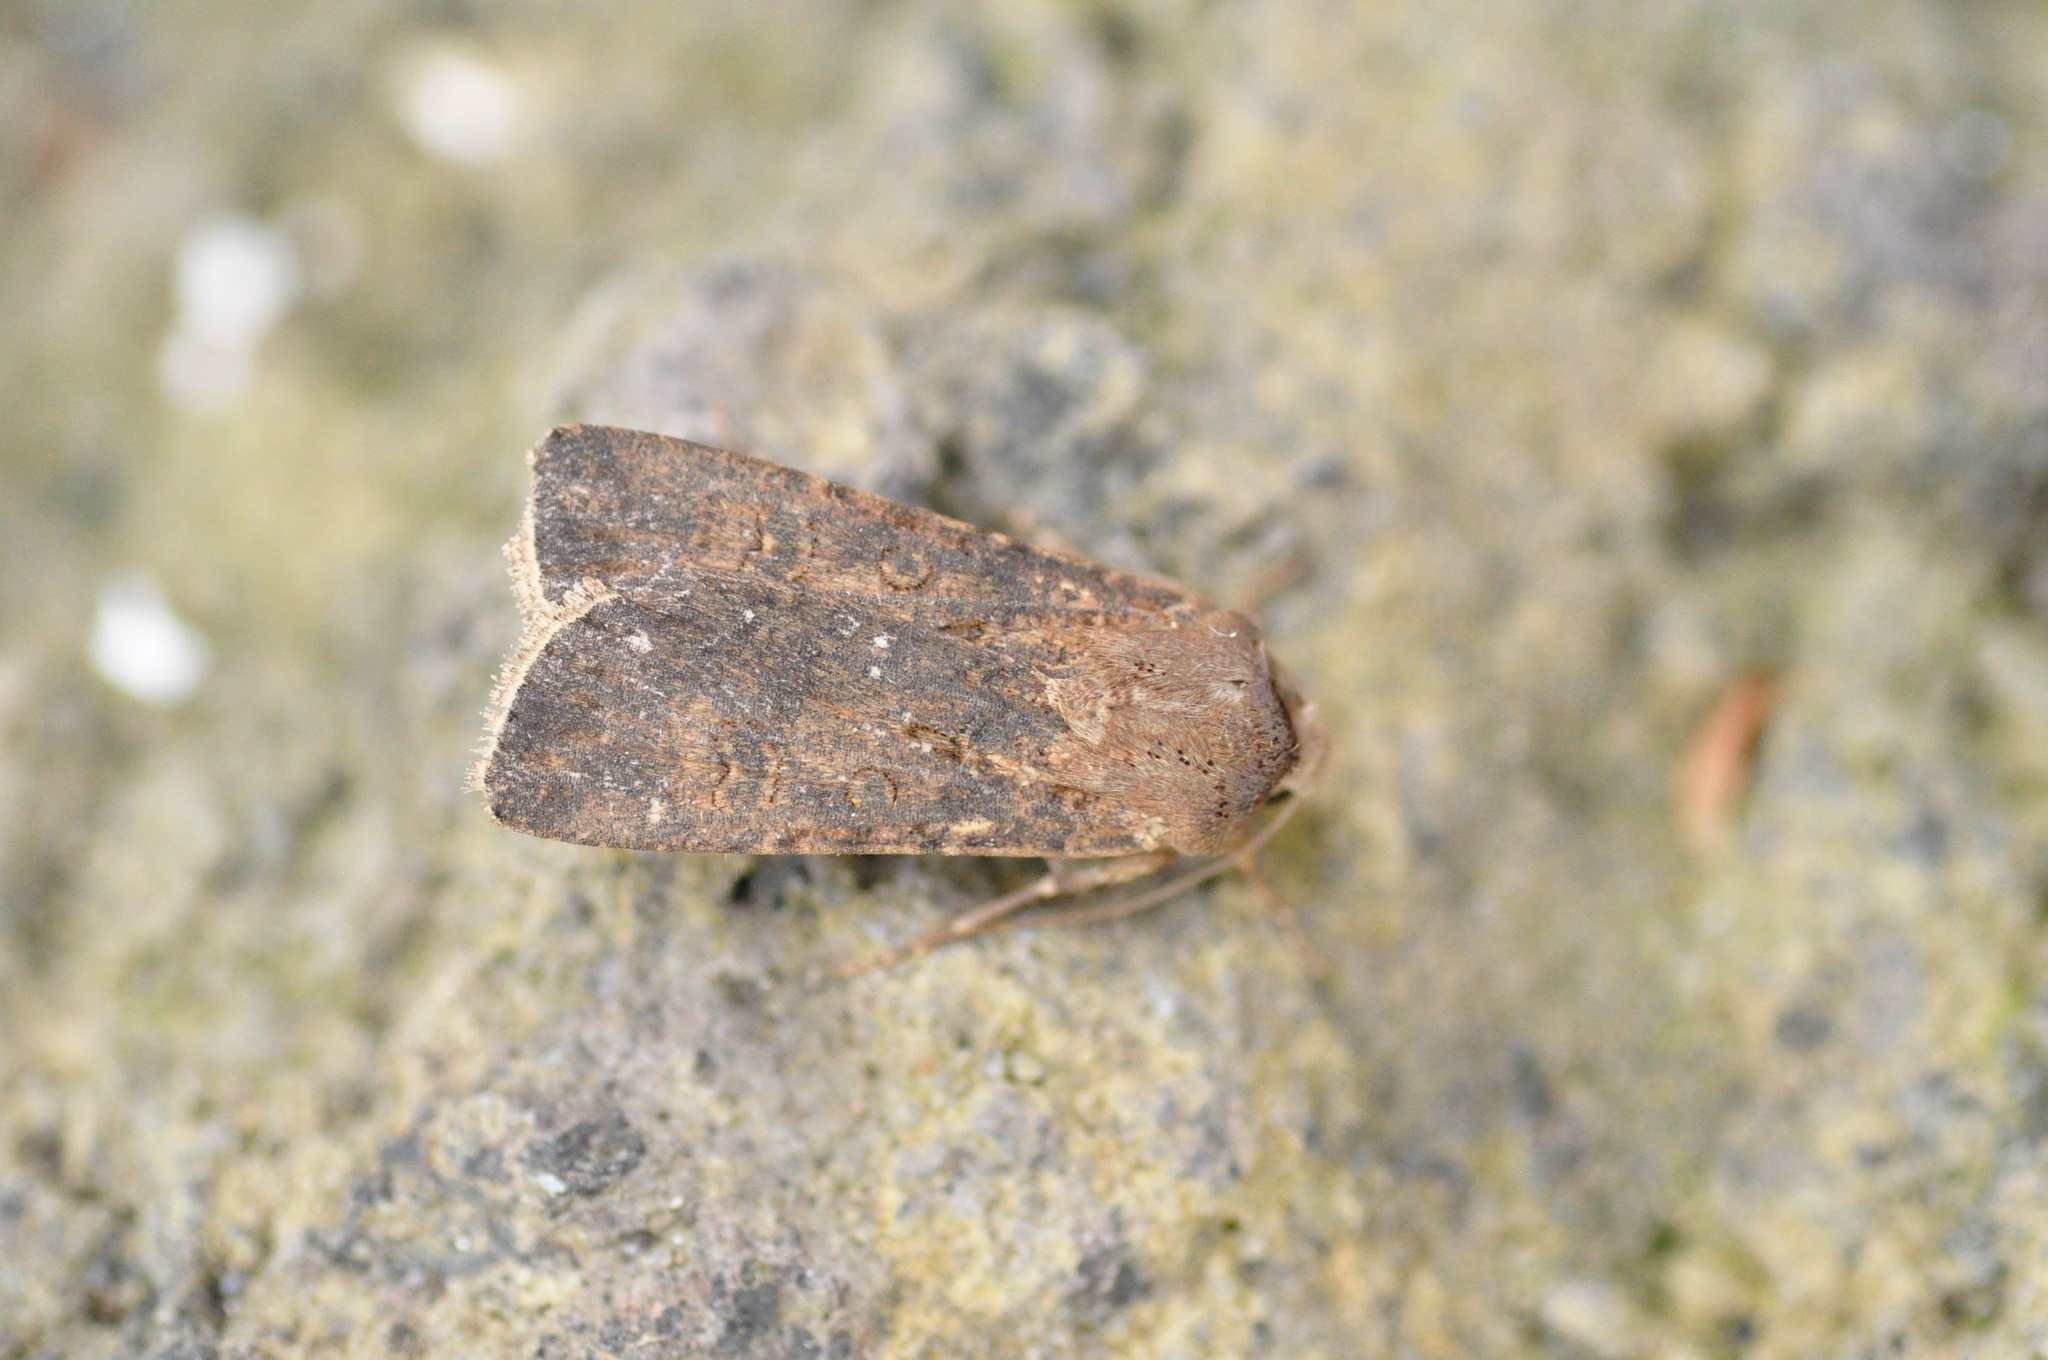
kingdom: Animalia
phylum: Arthropoda
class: Insecta
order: Lepidoptera
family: Noctuidae
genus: Agrotis
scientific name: Agrotis segetum
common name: Turnip moth
